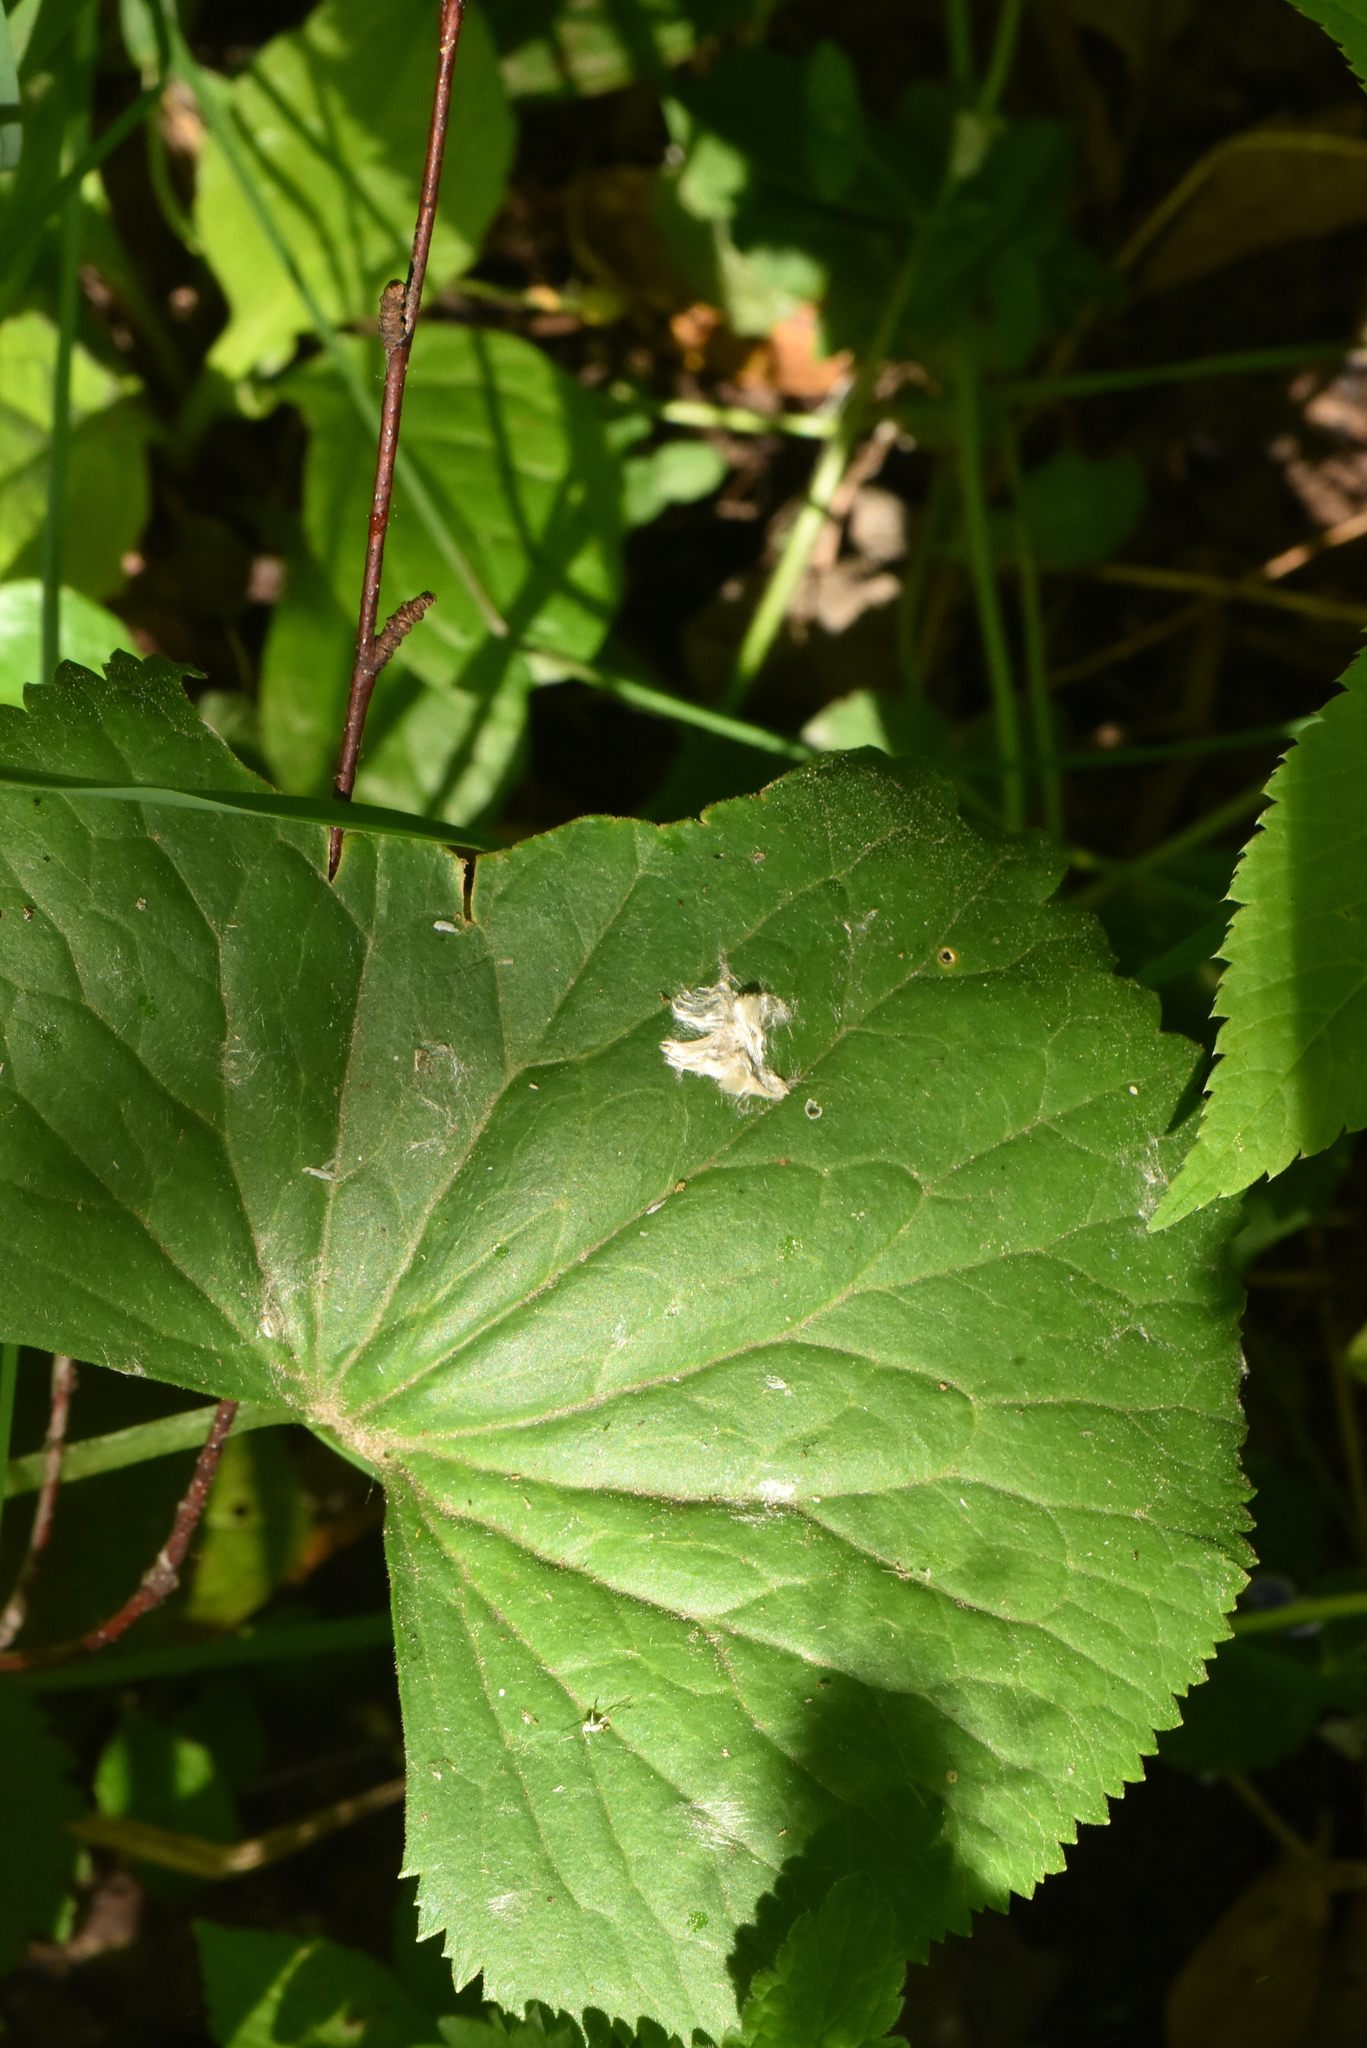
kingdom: Plantae
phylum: Tracheophyta
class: Magnoliopsida
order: Ranunculales
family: Ranunculaceae
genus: Ranunculus
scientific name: Ranunculus cassubicus
